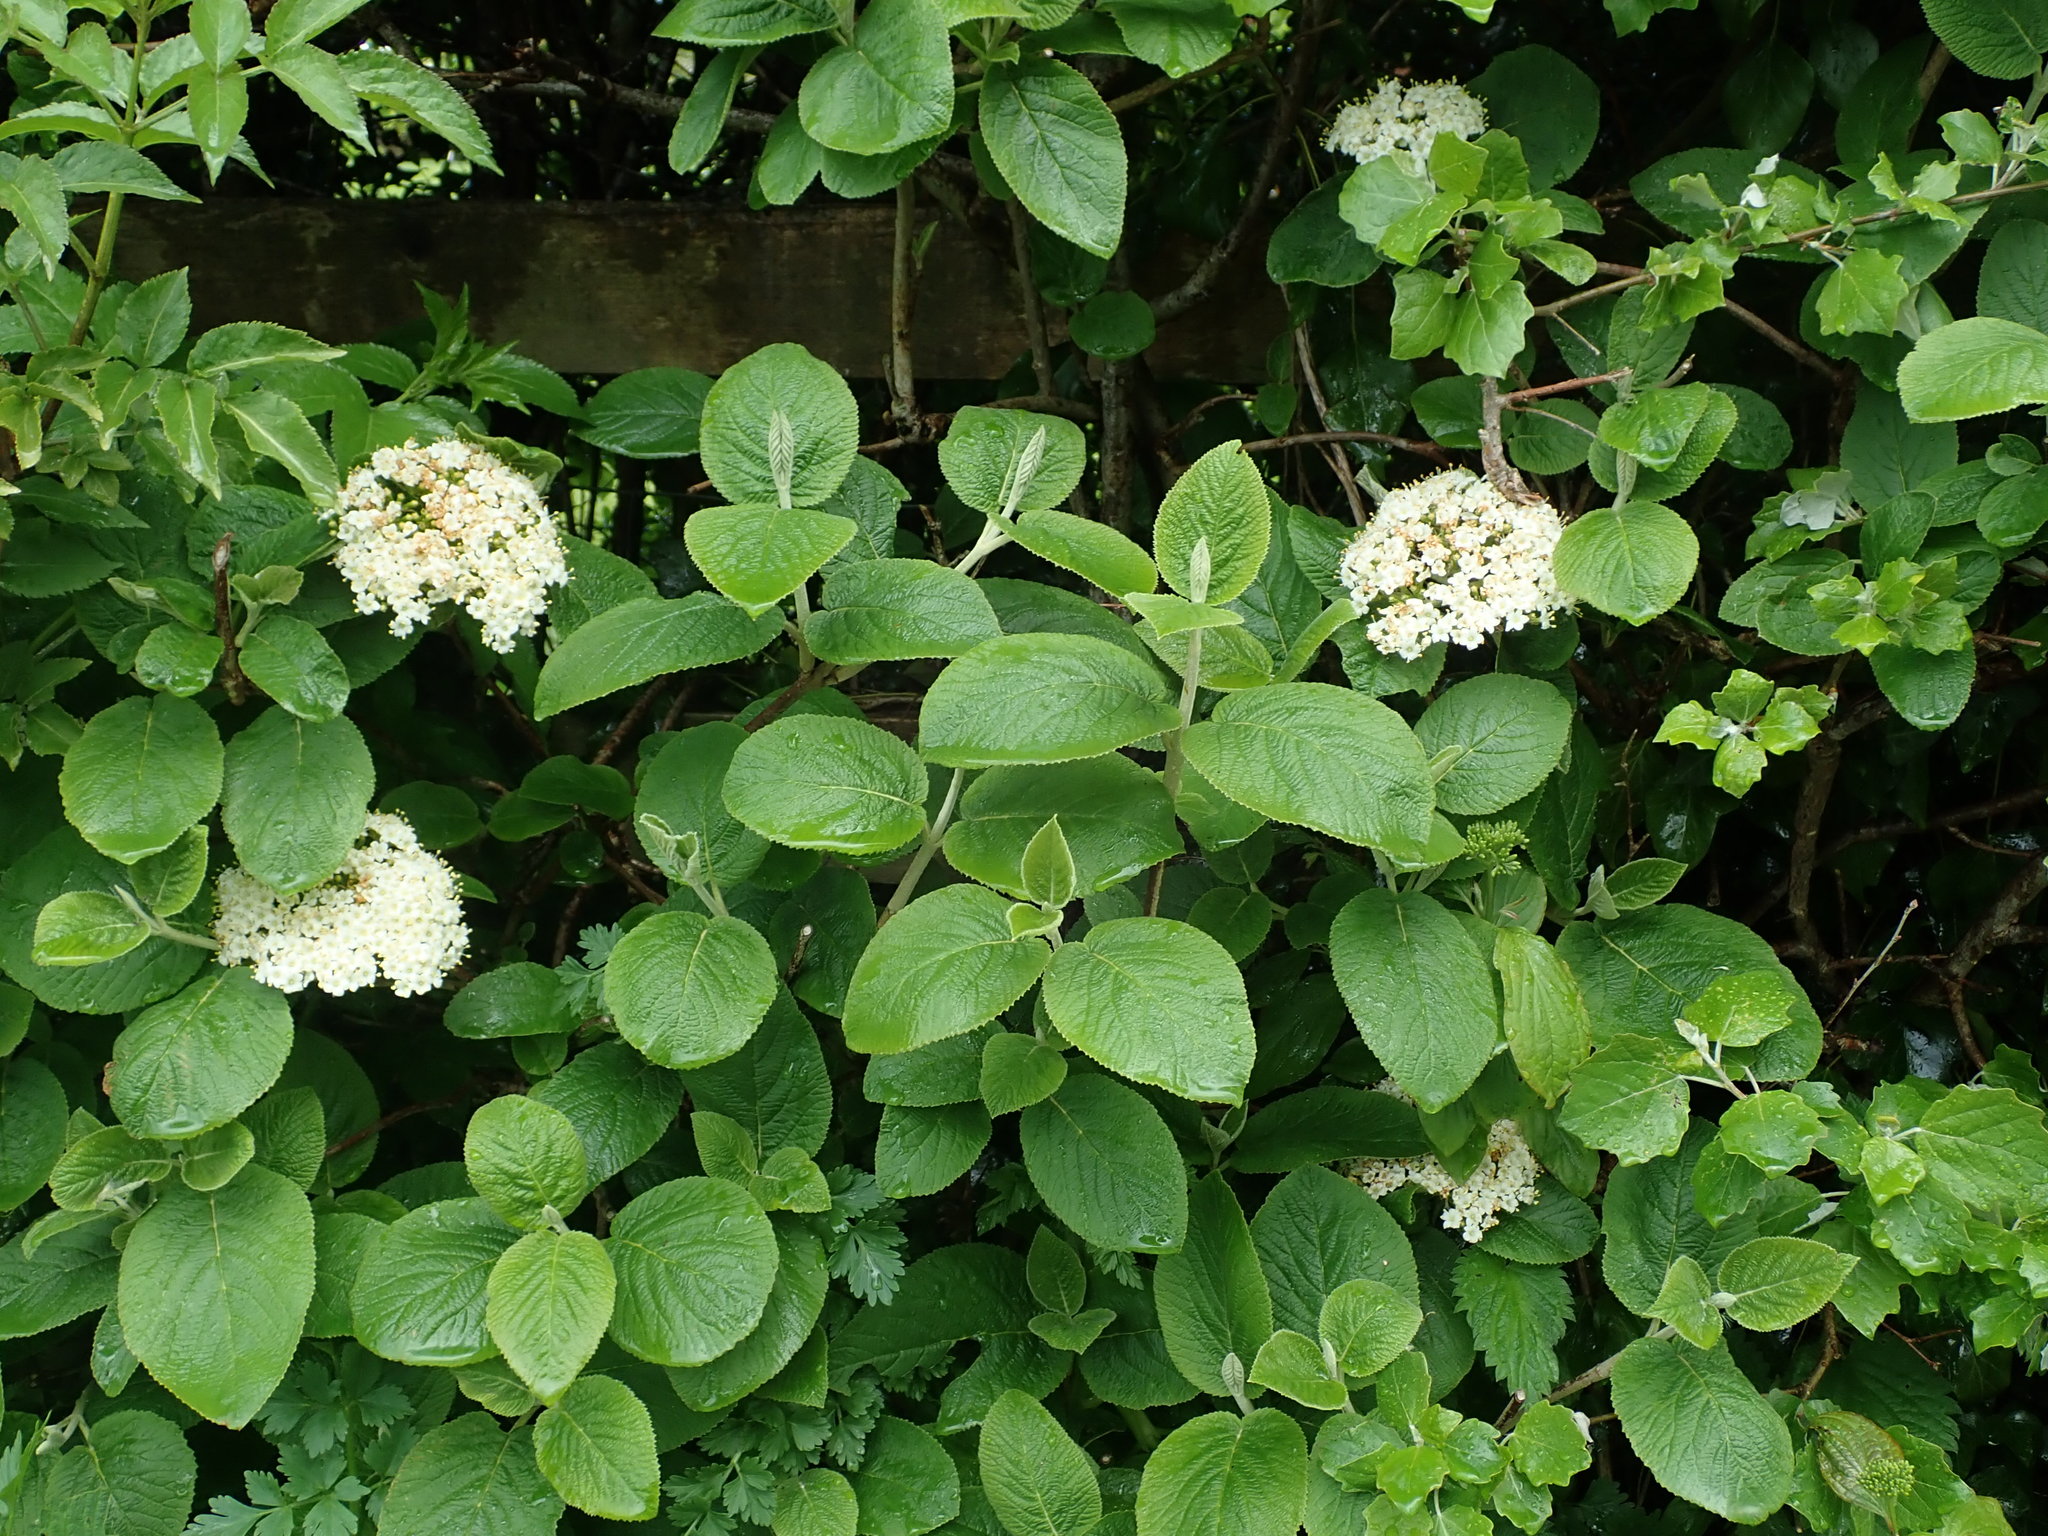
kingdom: Plantae
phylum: Tracheophyta
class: Magnoliopsida
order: Dipsacales
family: Viburnaceae
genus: Viburnum
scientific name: Viburnum lantana
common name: Wayfaring tree
